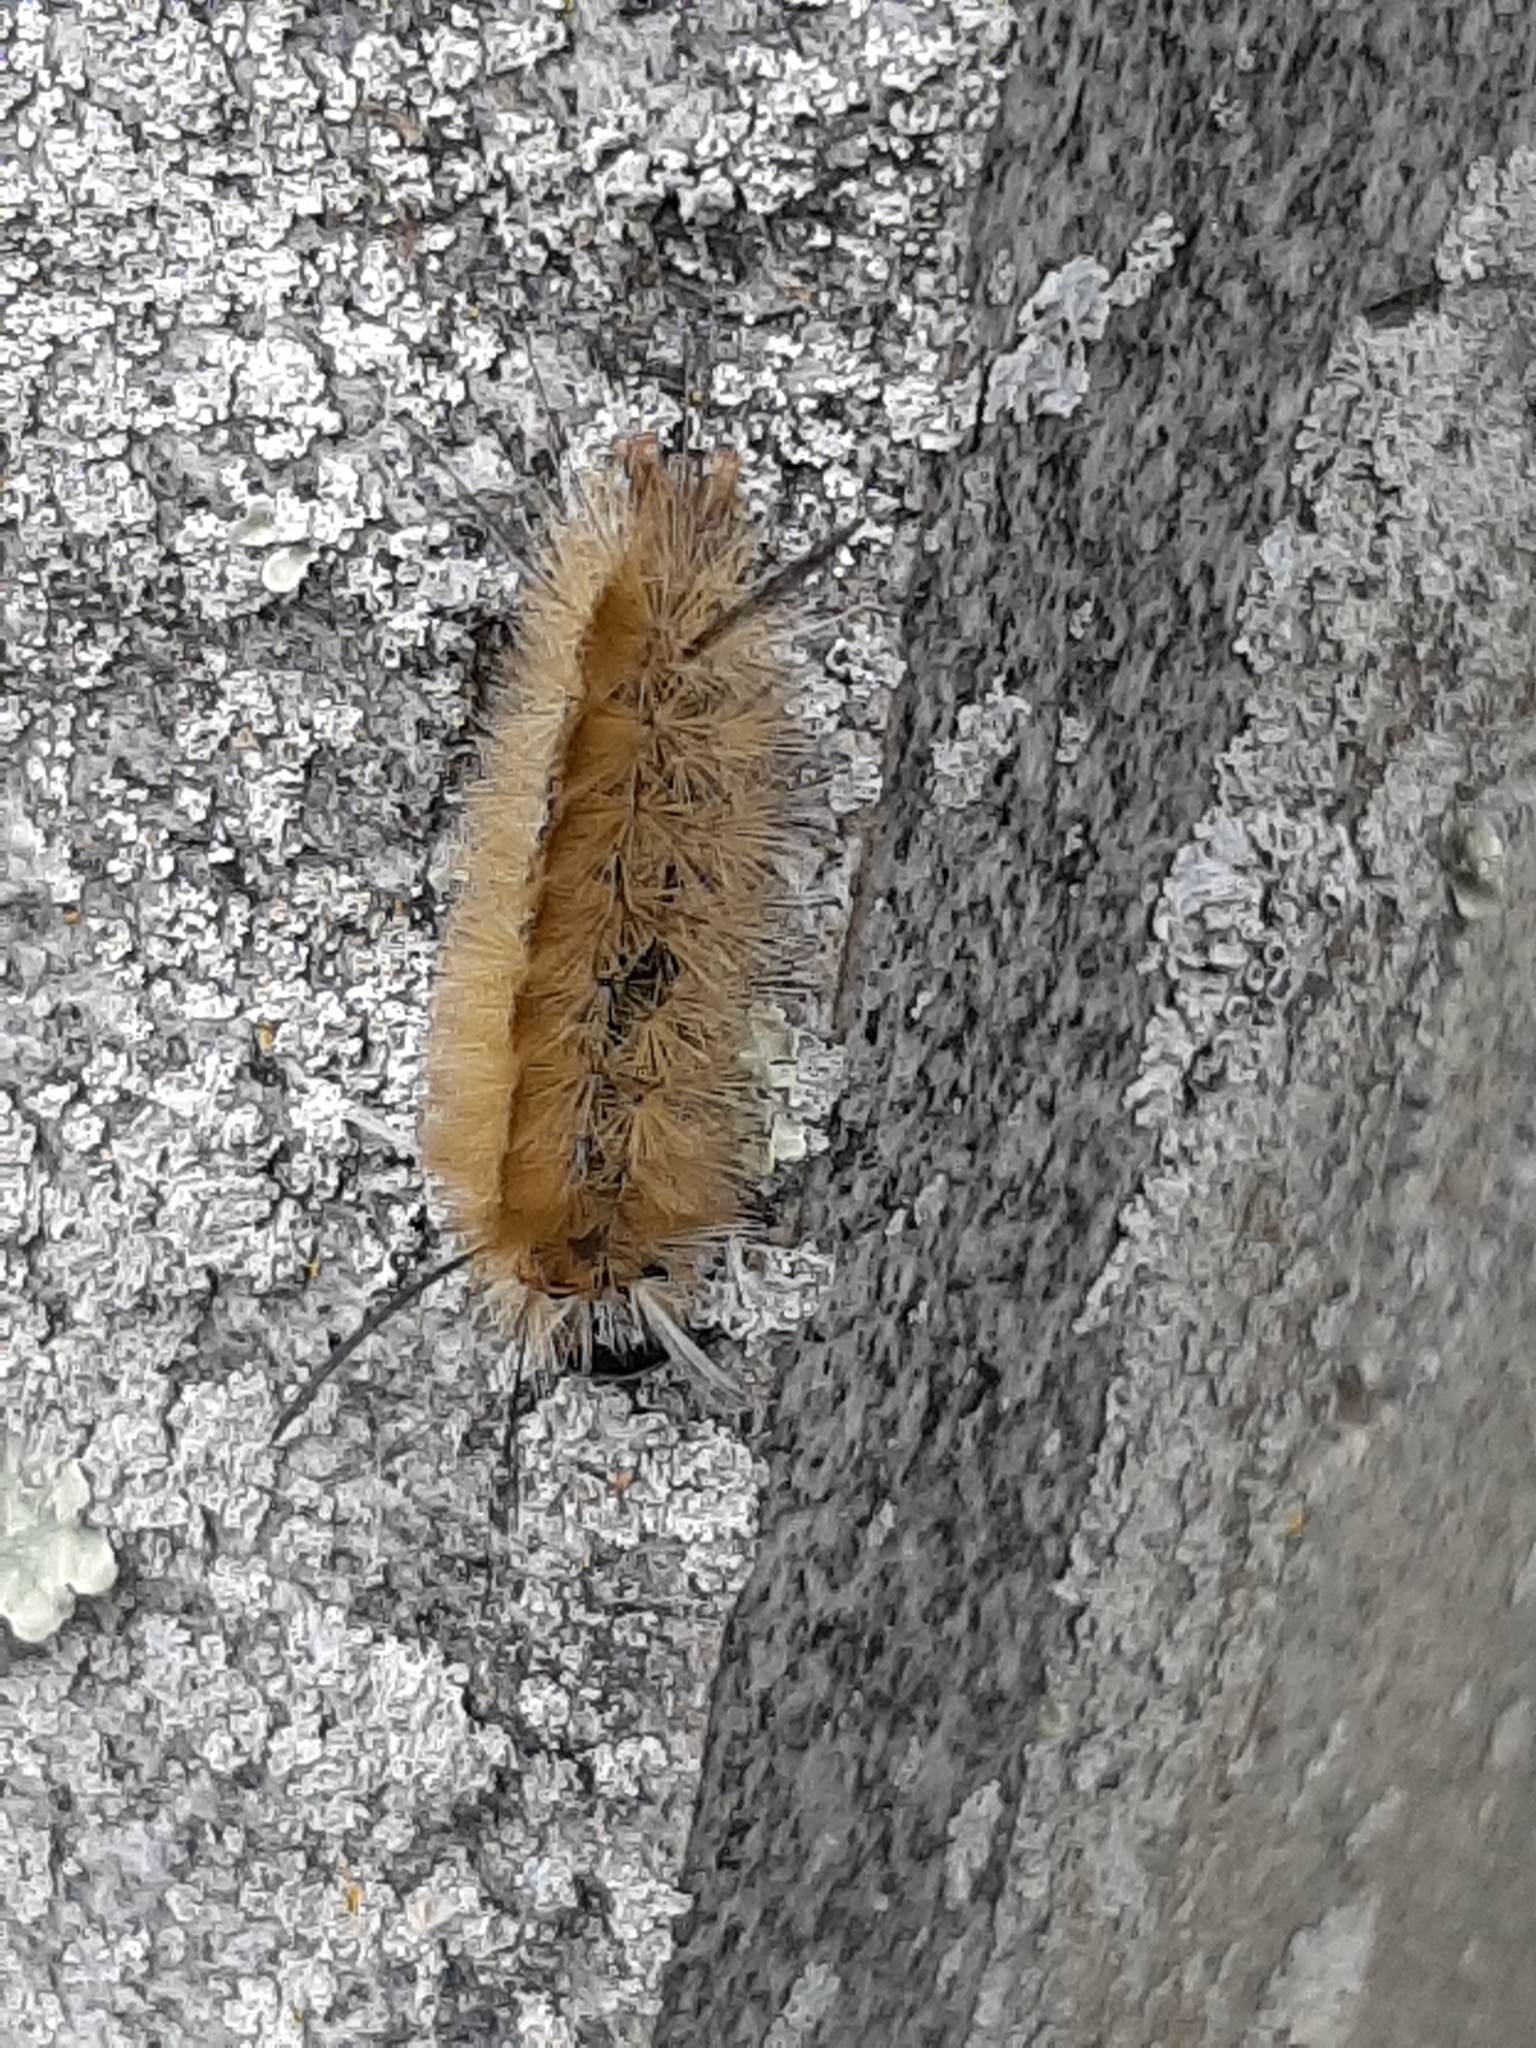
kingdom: Animalia
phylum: Arthropoda
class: Insecta
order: Lepidoptera
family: Erebidae
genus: Halysidota
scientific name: Halysidota tessellaris
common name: Banded tussock moth
